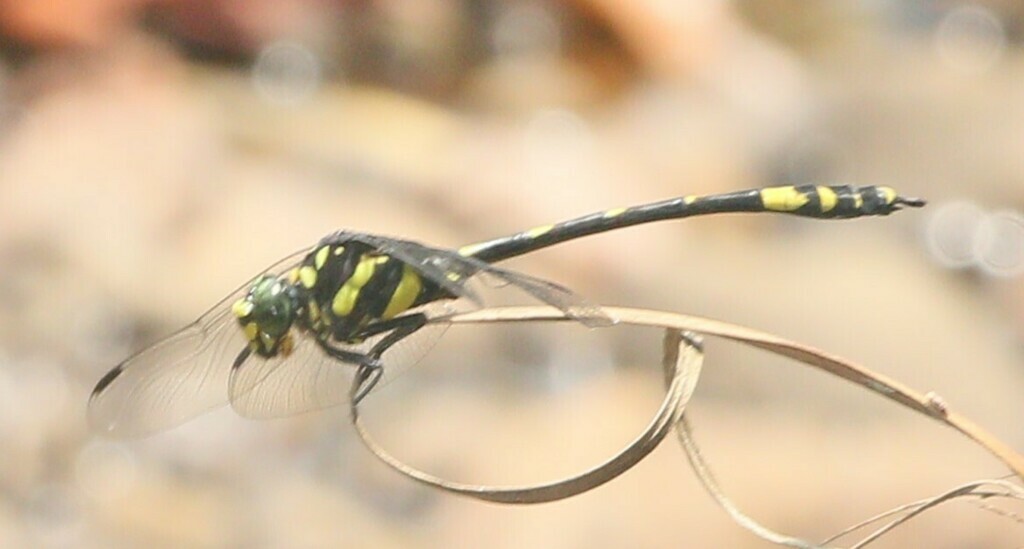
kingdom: Animalia
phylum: Arthropoda
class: Insecta
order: Odonata
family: Gomphidae
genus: Gomphidia
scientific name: Gomphidia kodaguensis
